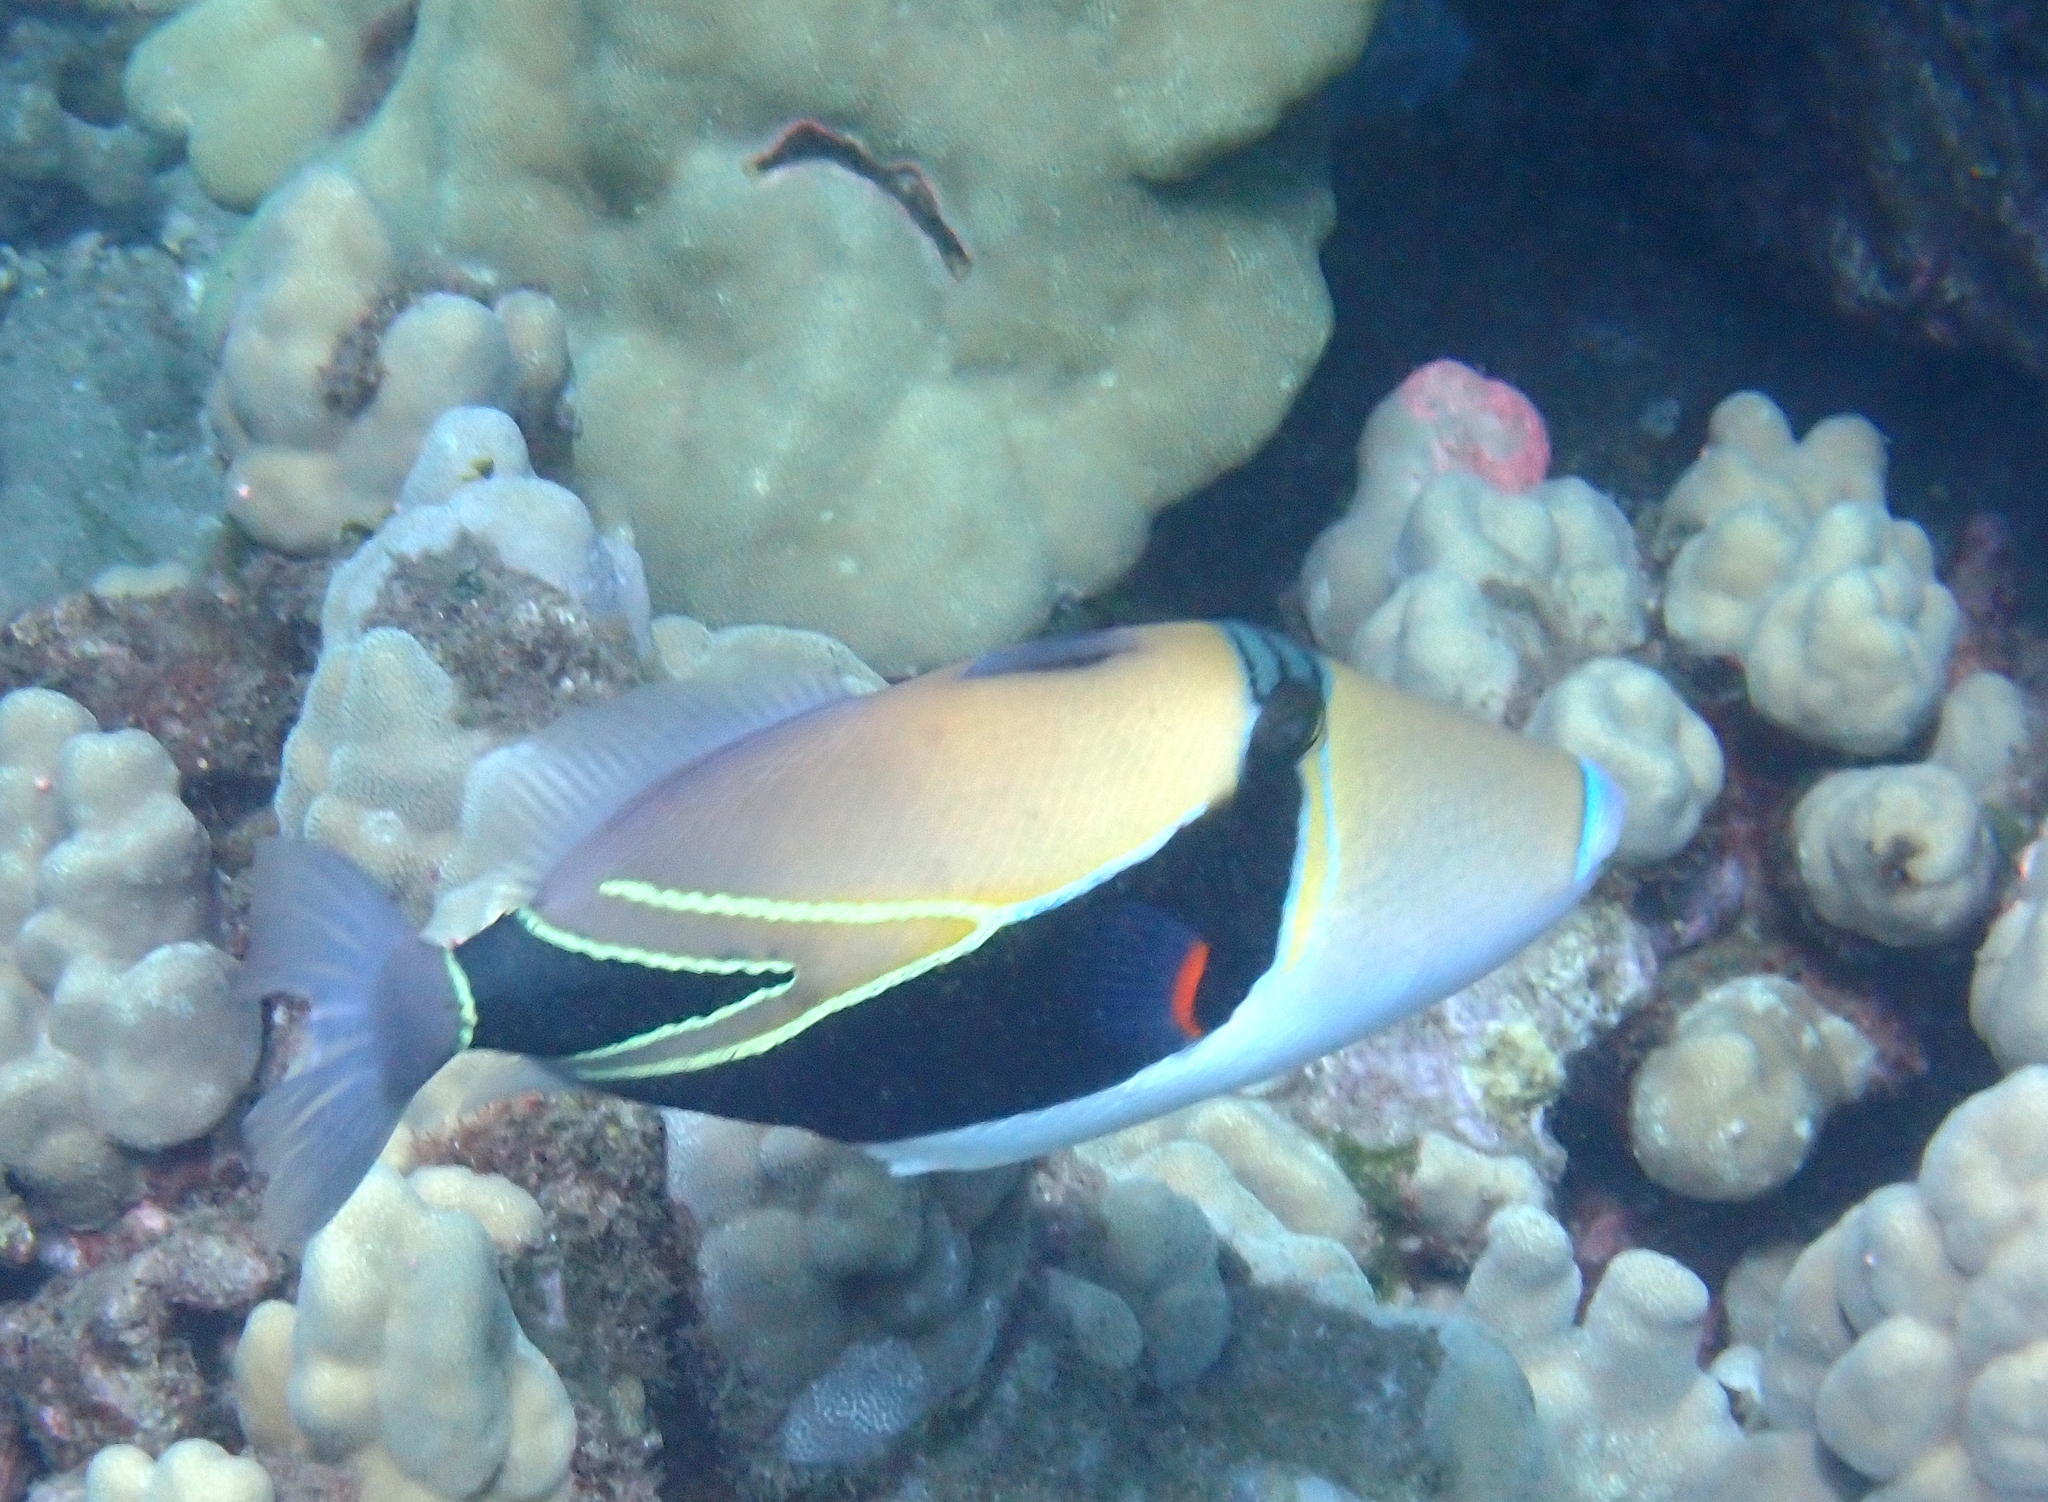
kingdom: Animalia
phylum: Chordata
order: Tetraodontiformes
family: Balistidae
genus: Rhinecanthus
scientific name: Rhinecanthus rectangulus
